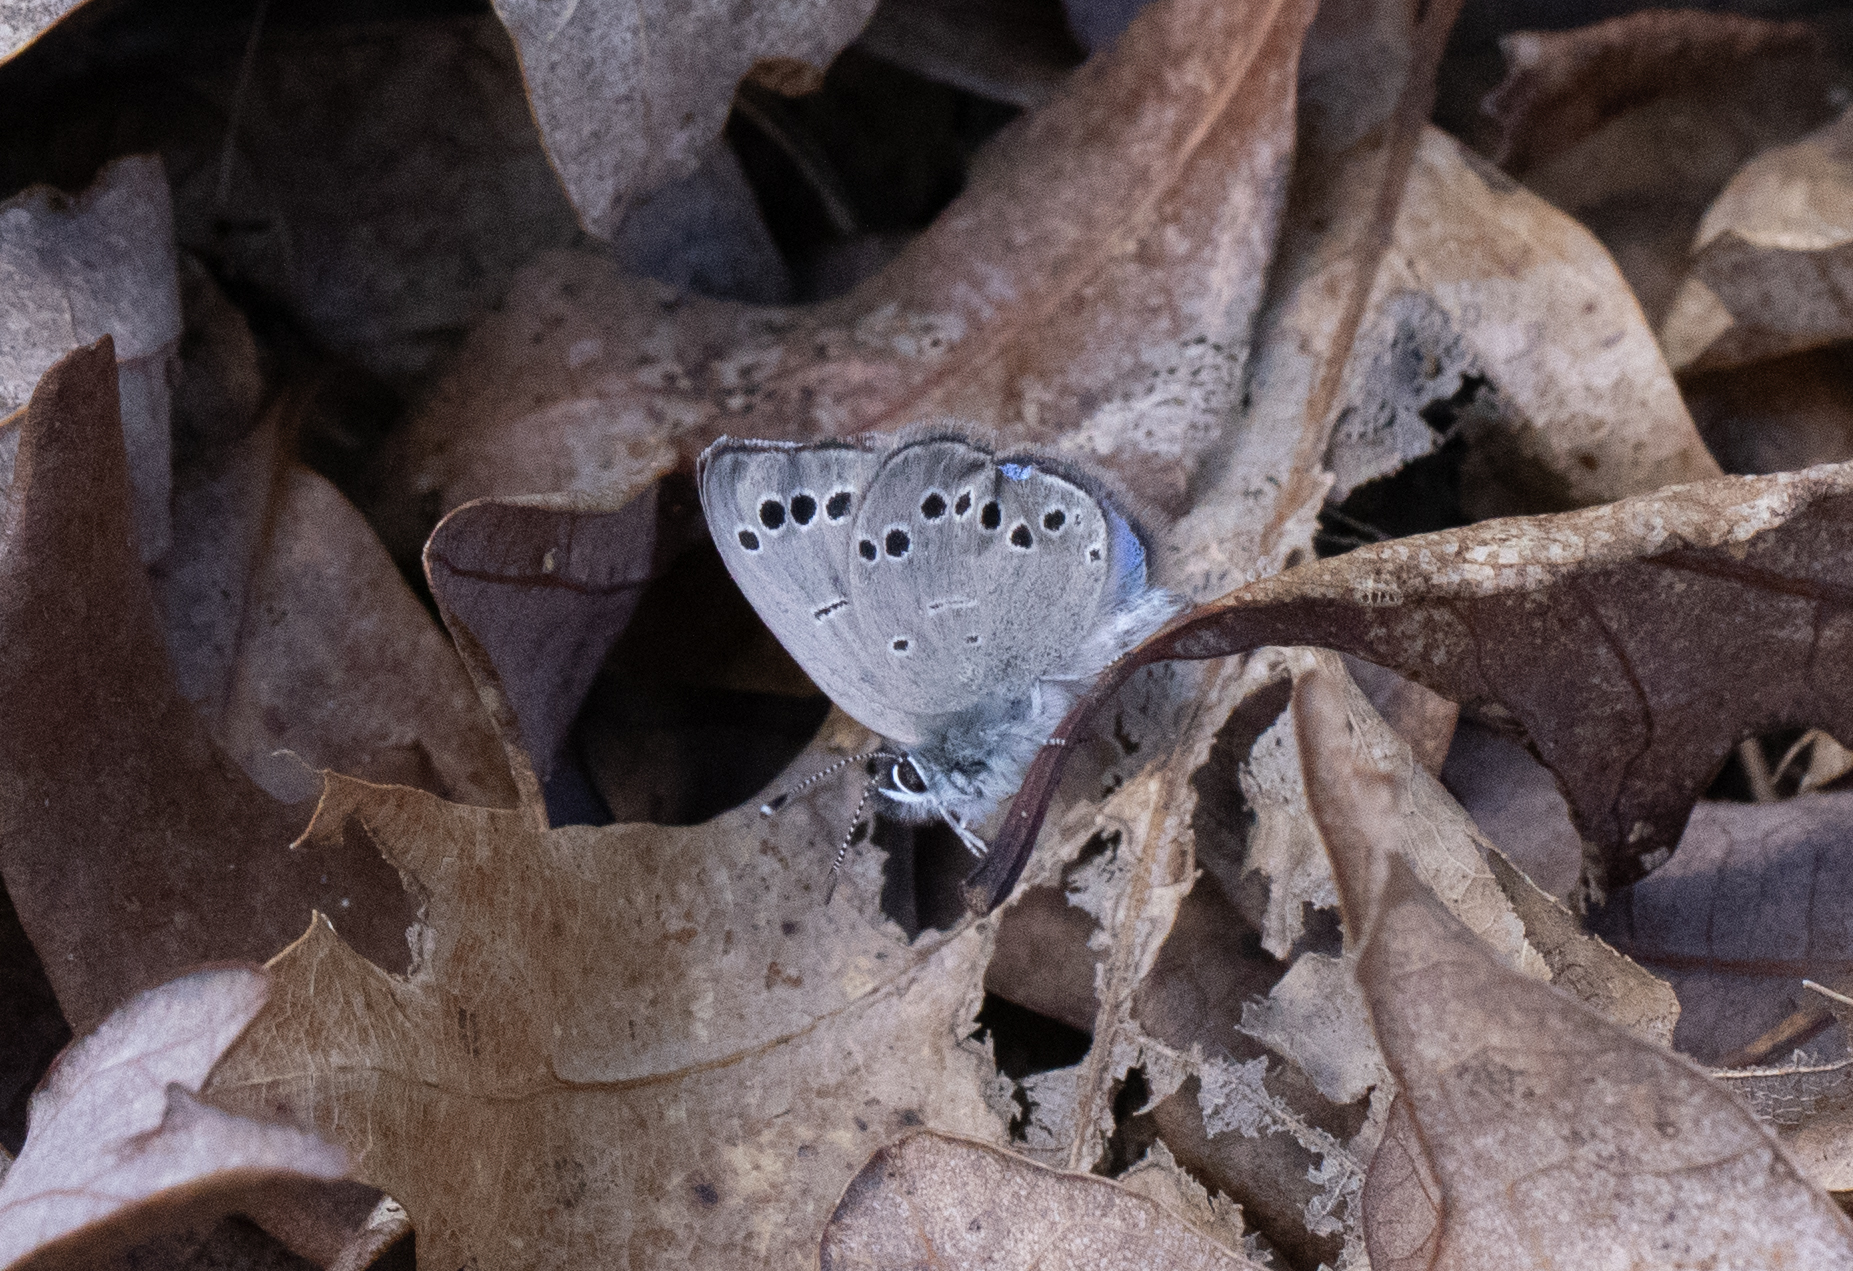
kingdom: Animalia
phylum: Arthropoda
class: Insecta
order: Lepidoptera
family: Lycaenidae
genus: Glaucopsyche
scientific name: Glaucopsyche lygdamus
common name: Silvery blue
